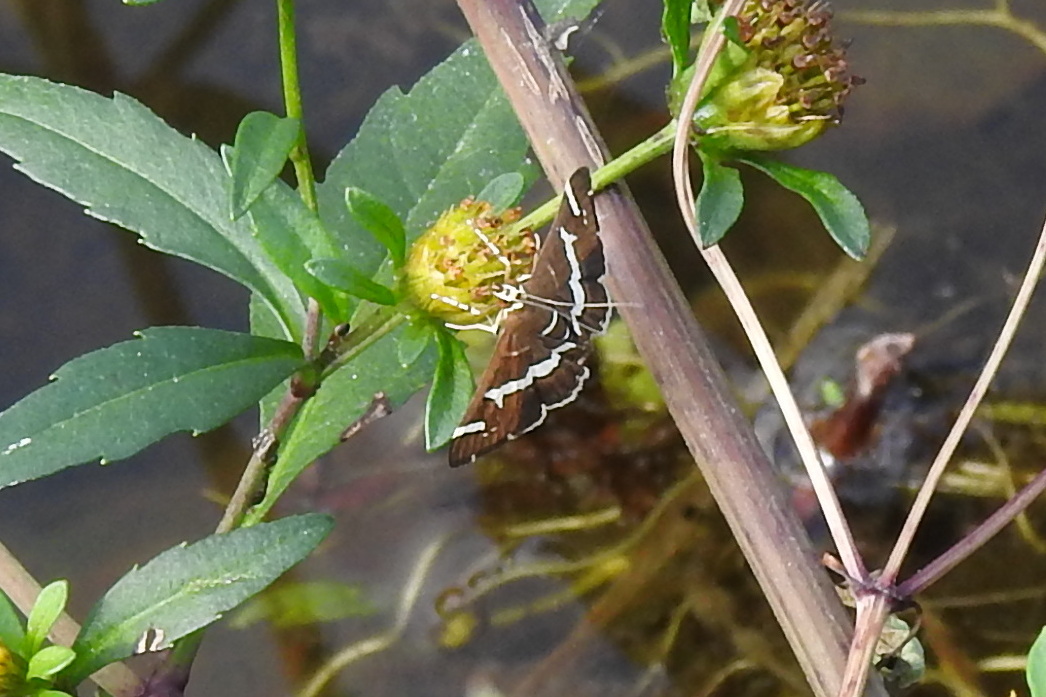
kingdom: Animalia
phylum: Arthropoda
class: Insecta
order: Lepidoptera
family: Crambidae
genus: Spoladea
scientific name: Spoladea recurvalis
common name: Beet webworm moth
